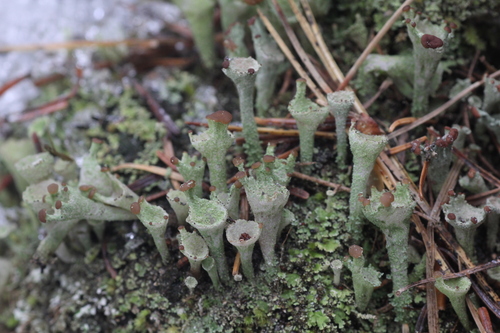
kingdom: Fungi
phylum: Ascomycota
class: Lecanoromycetes
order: Lecanorales
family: Cladoniaceae
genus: Cladonia
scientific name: Cladonia
